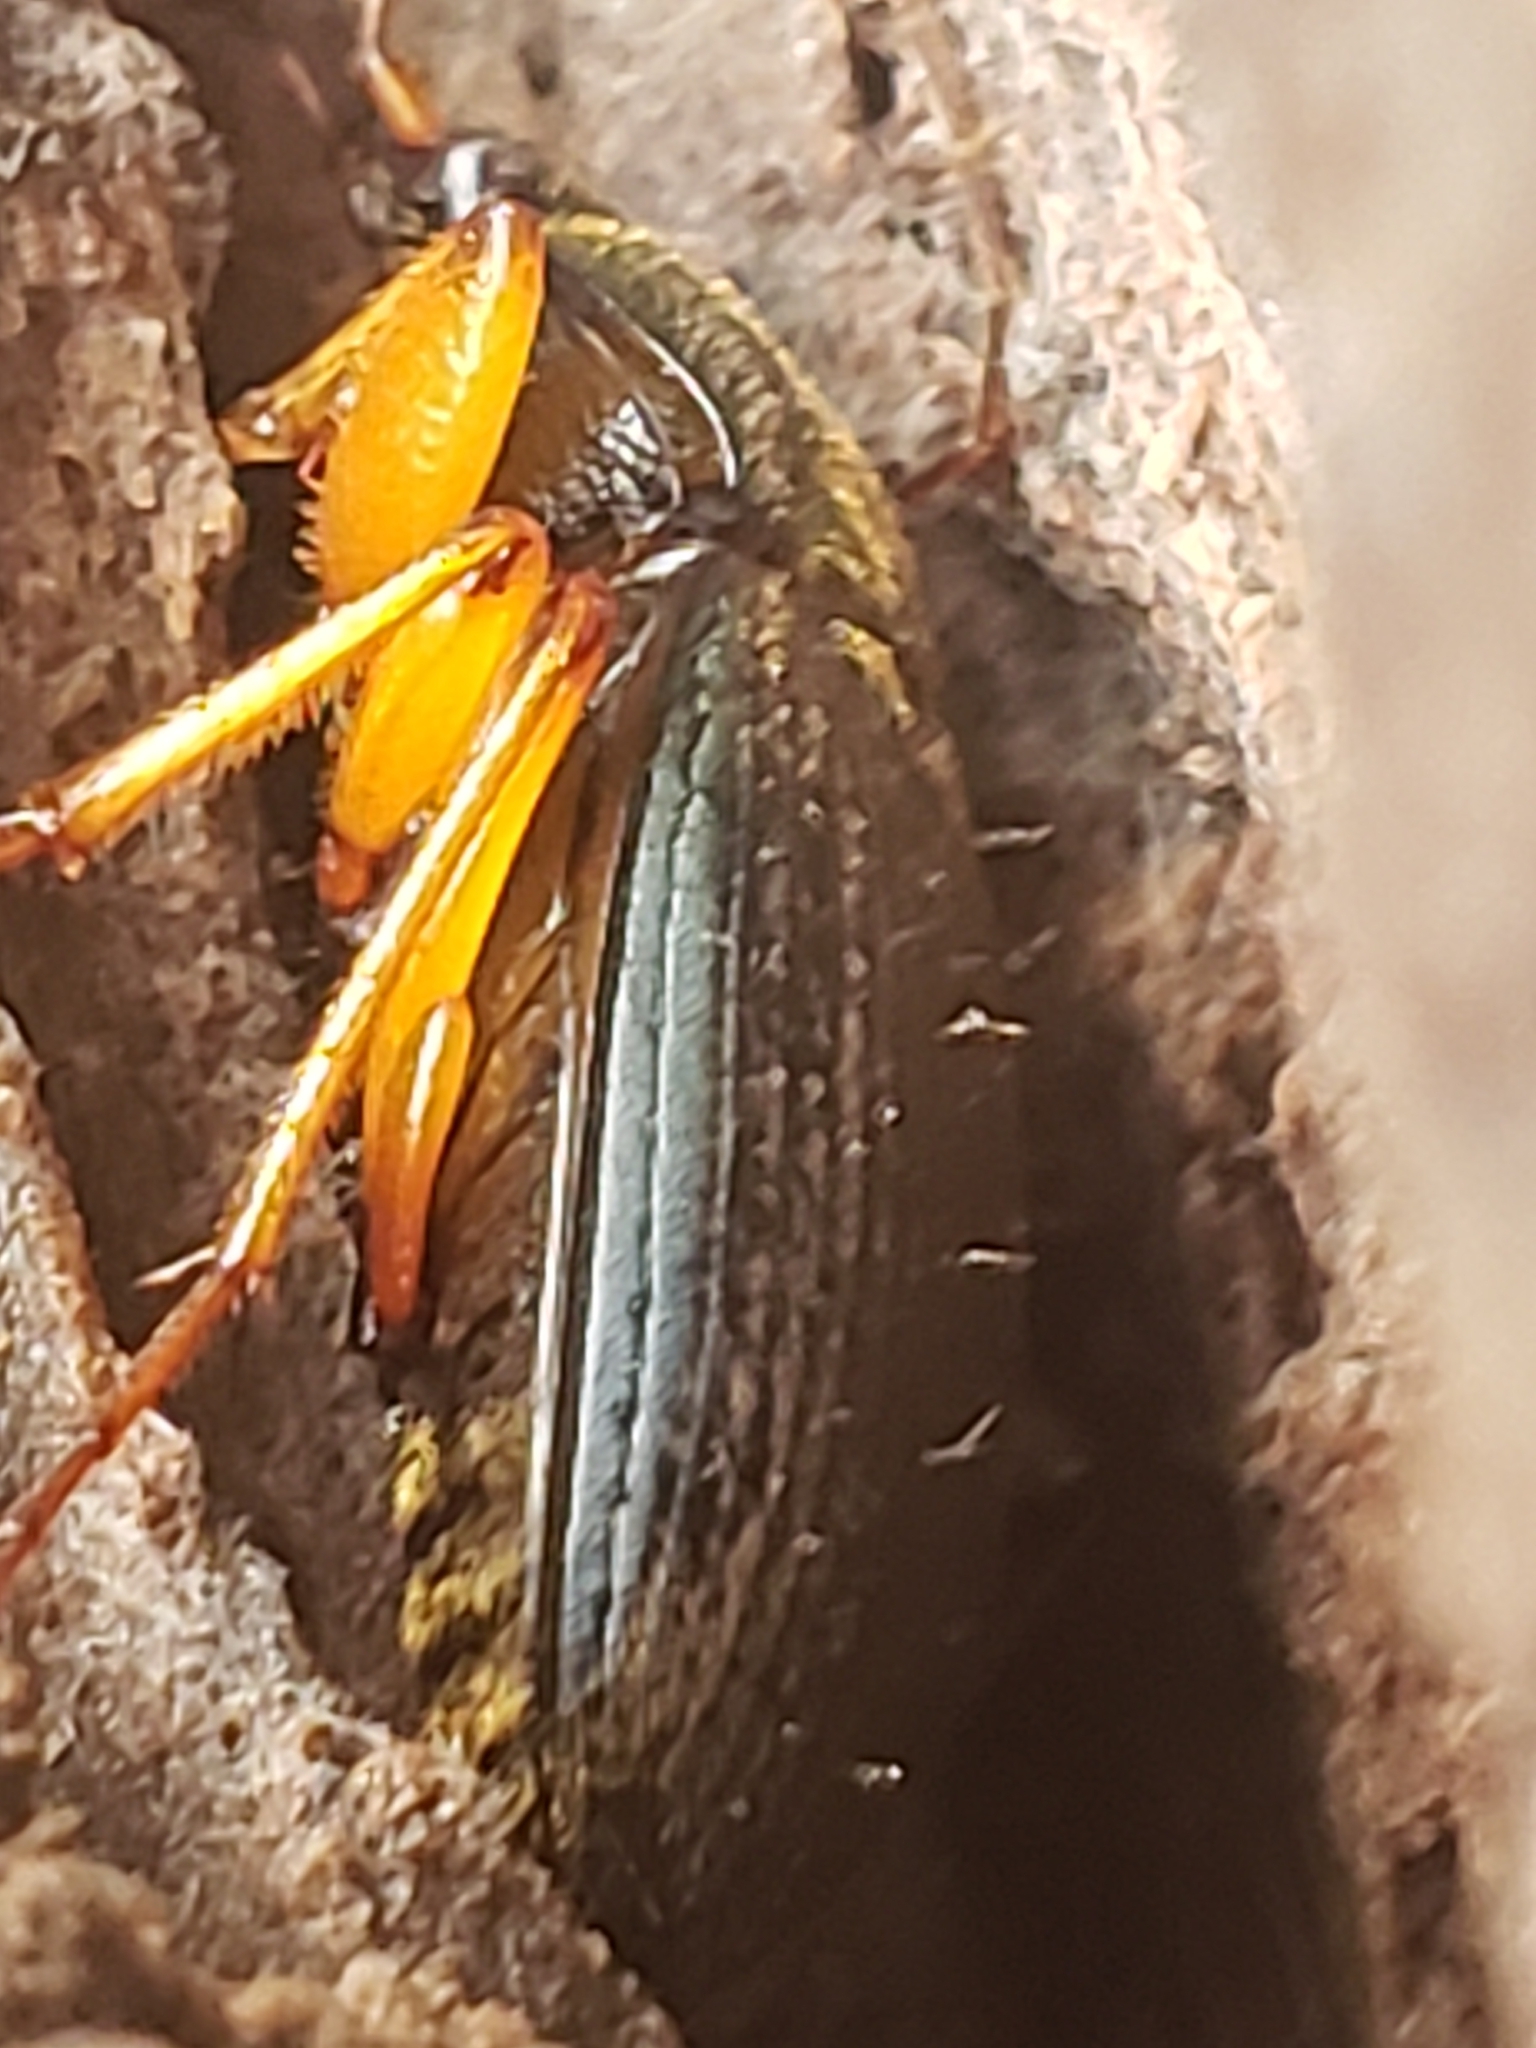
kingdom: Animalia
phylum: Arthropoda
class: Insecta
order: Coleoptera
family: Carabidae
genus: Chlaenius
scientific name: Chlaenius aestivus
